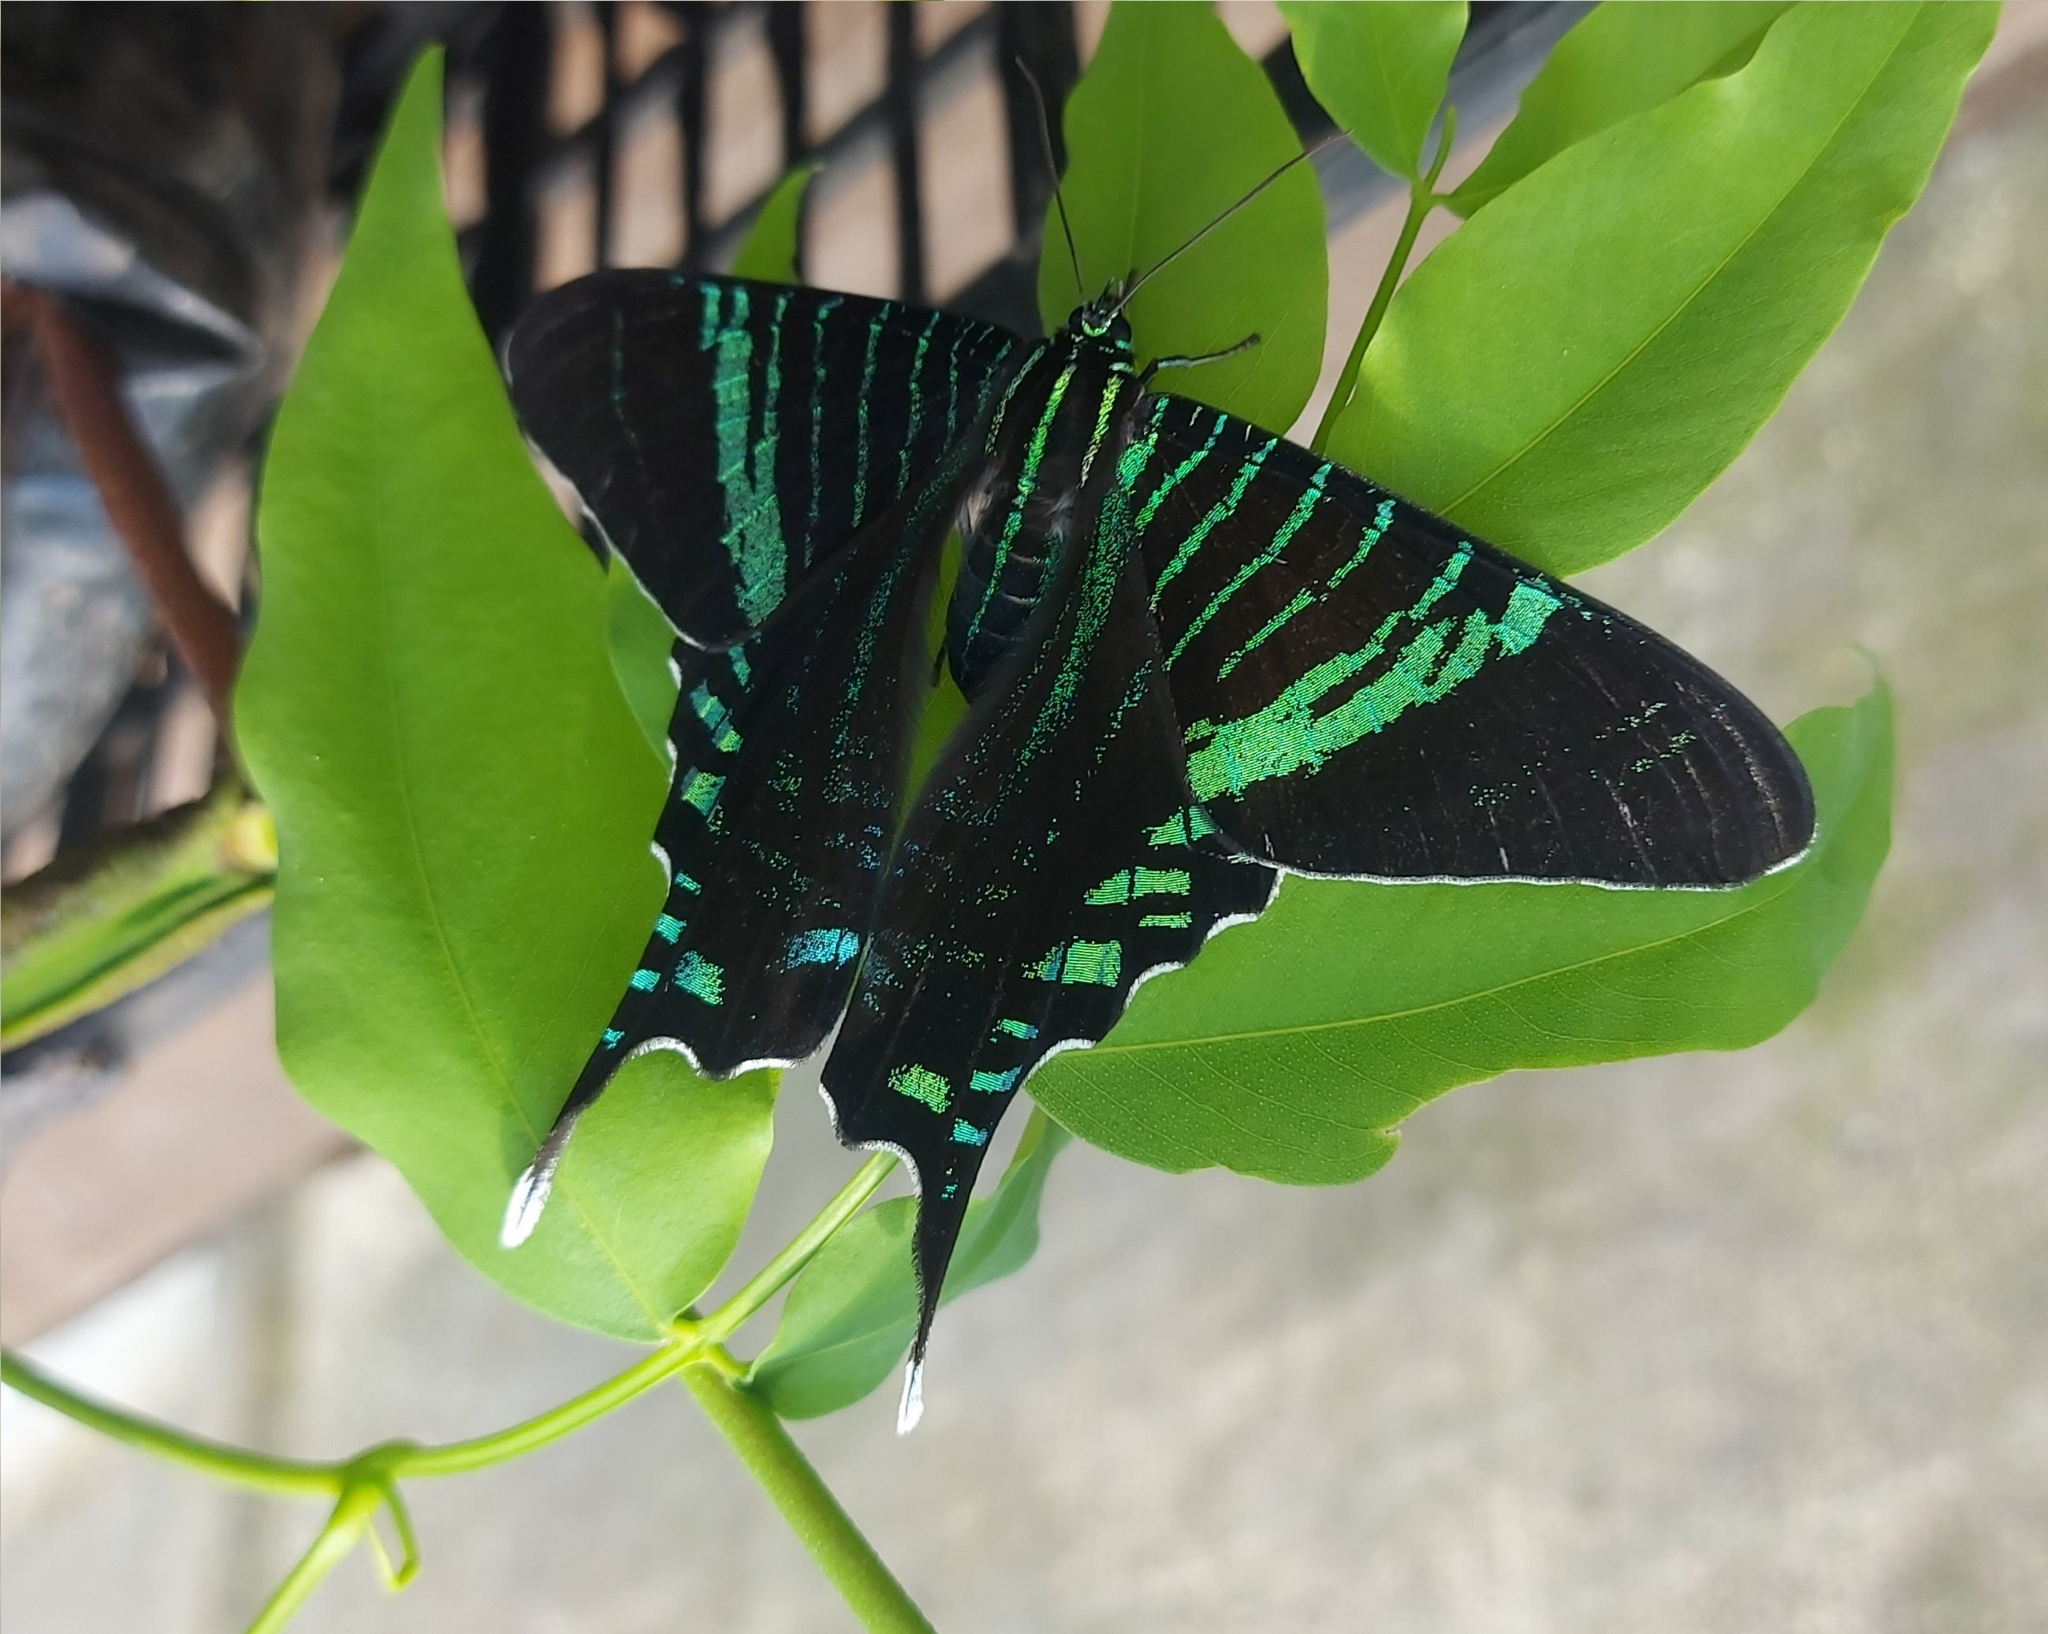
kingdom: Animalia
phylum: Arthropoda
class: Insecta
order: Lepidoptera
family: Uraniidae
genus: Urania
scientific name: Urania fulgens
